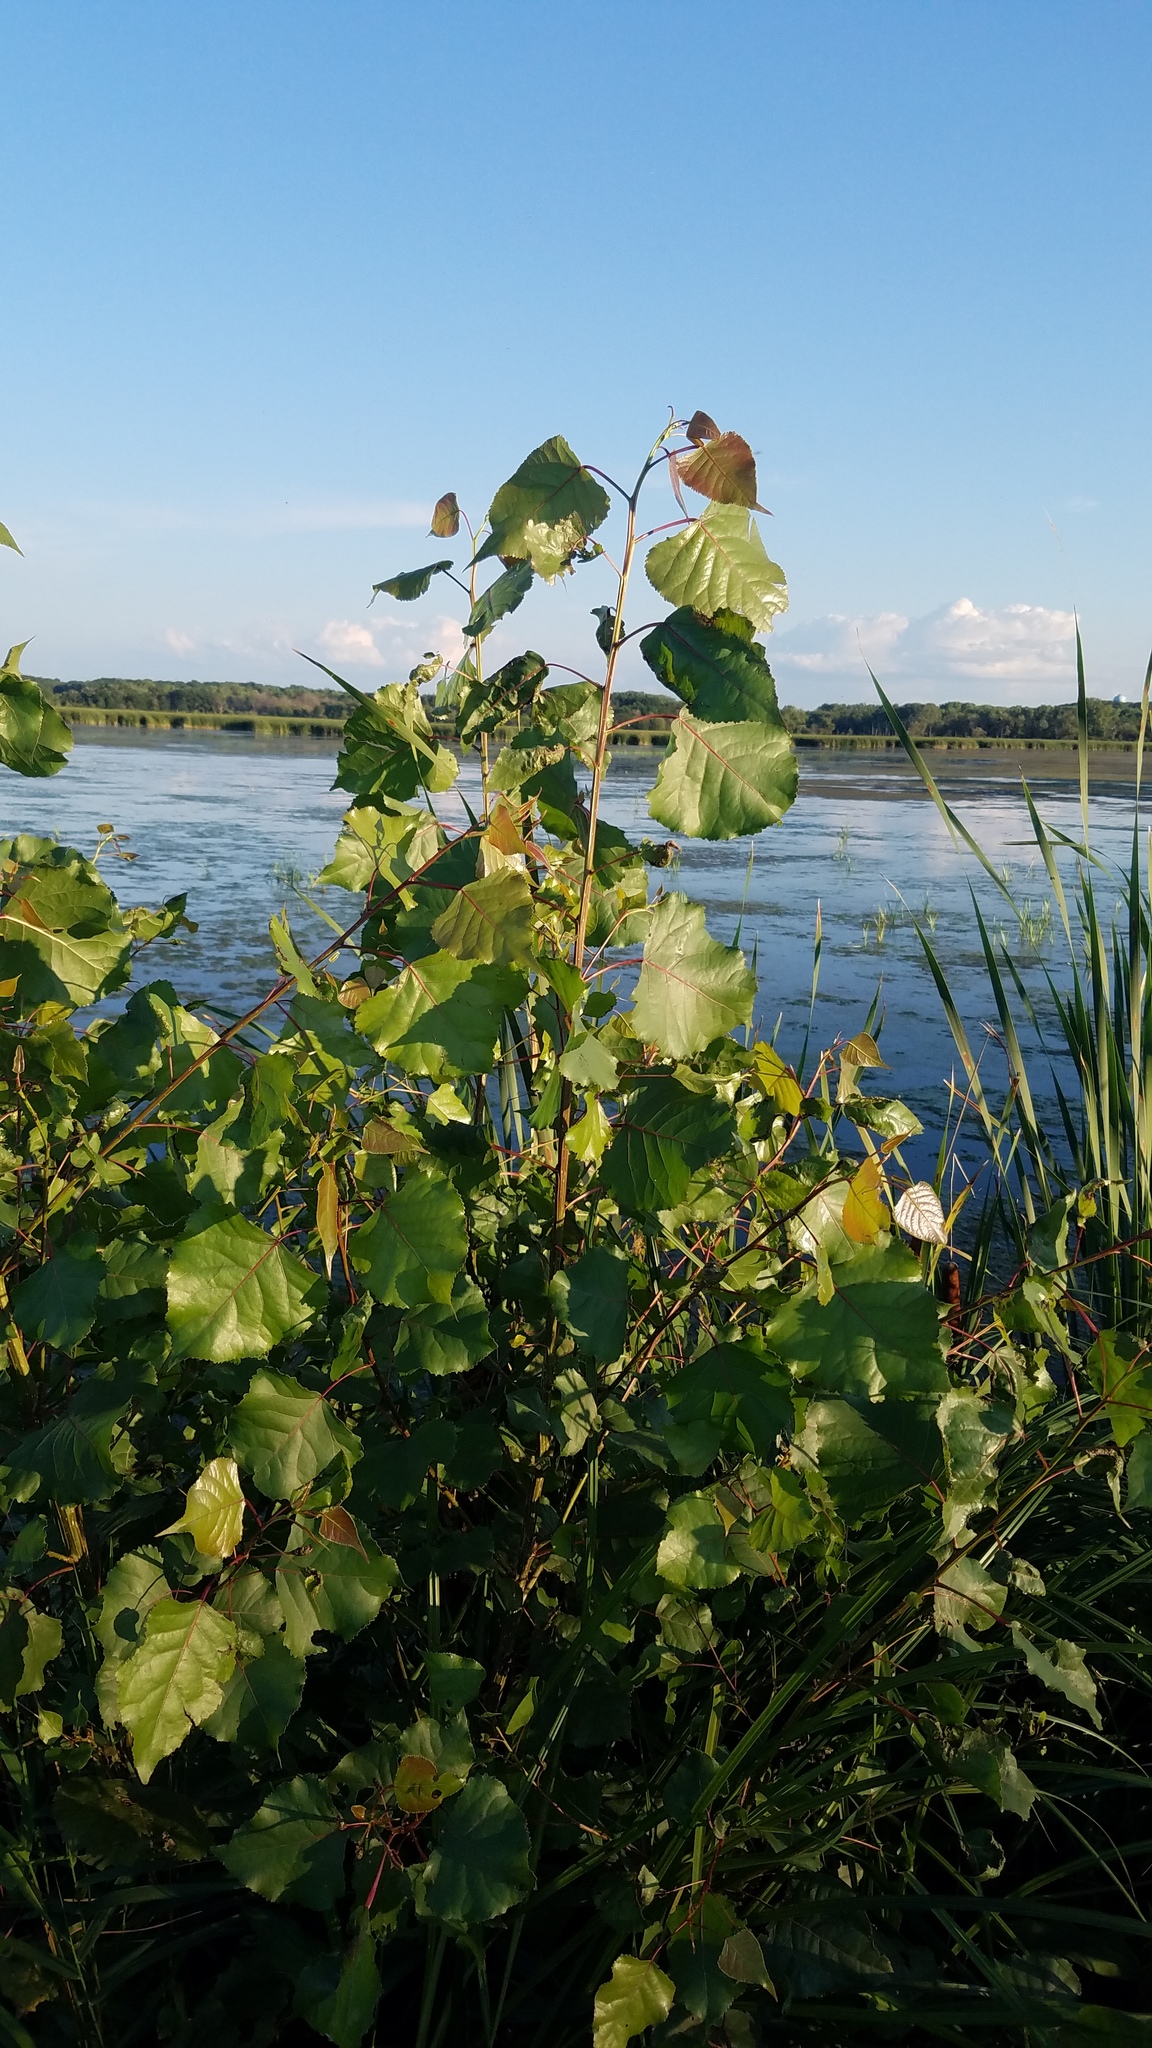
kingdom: Plantae
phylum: Tracheophyta
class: Magnoliopsida
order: Malpighiales
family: Salicaceae
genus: Populus
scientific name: Populus deltoides
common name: Eastern cottonwood
